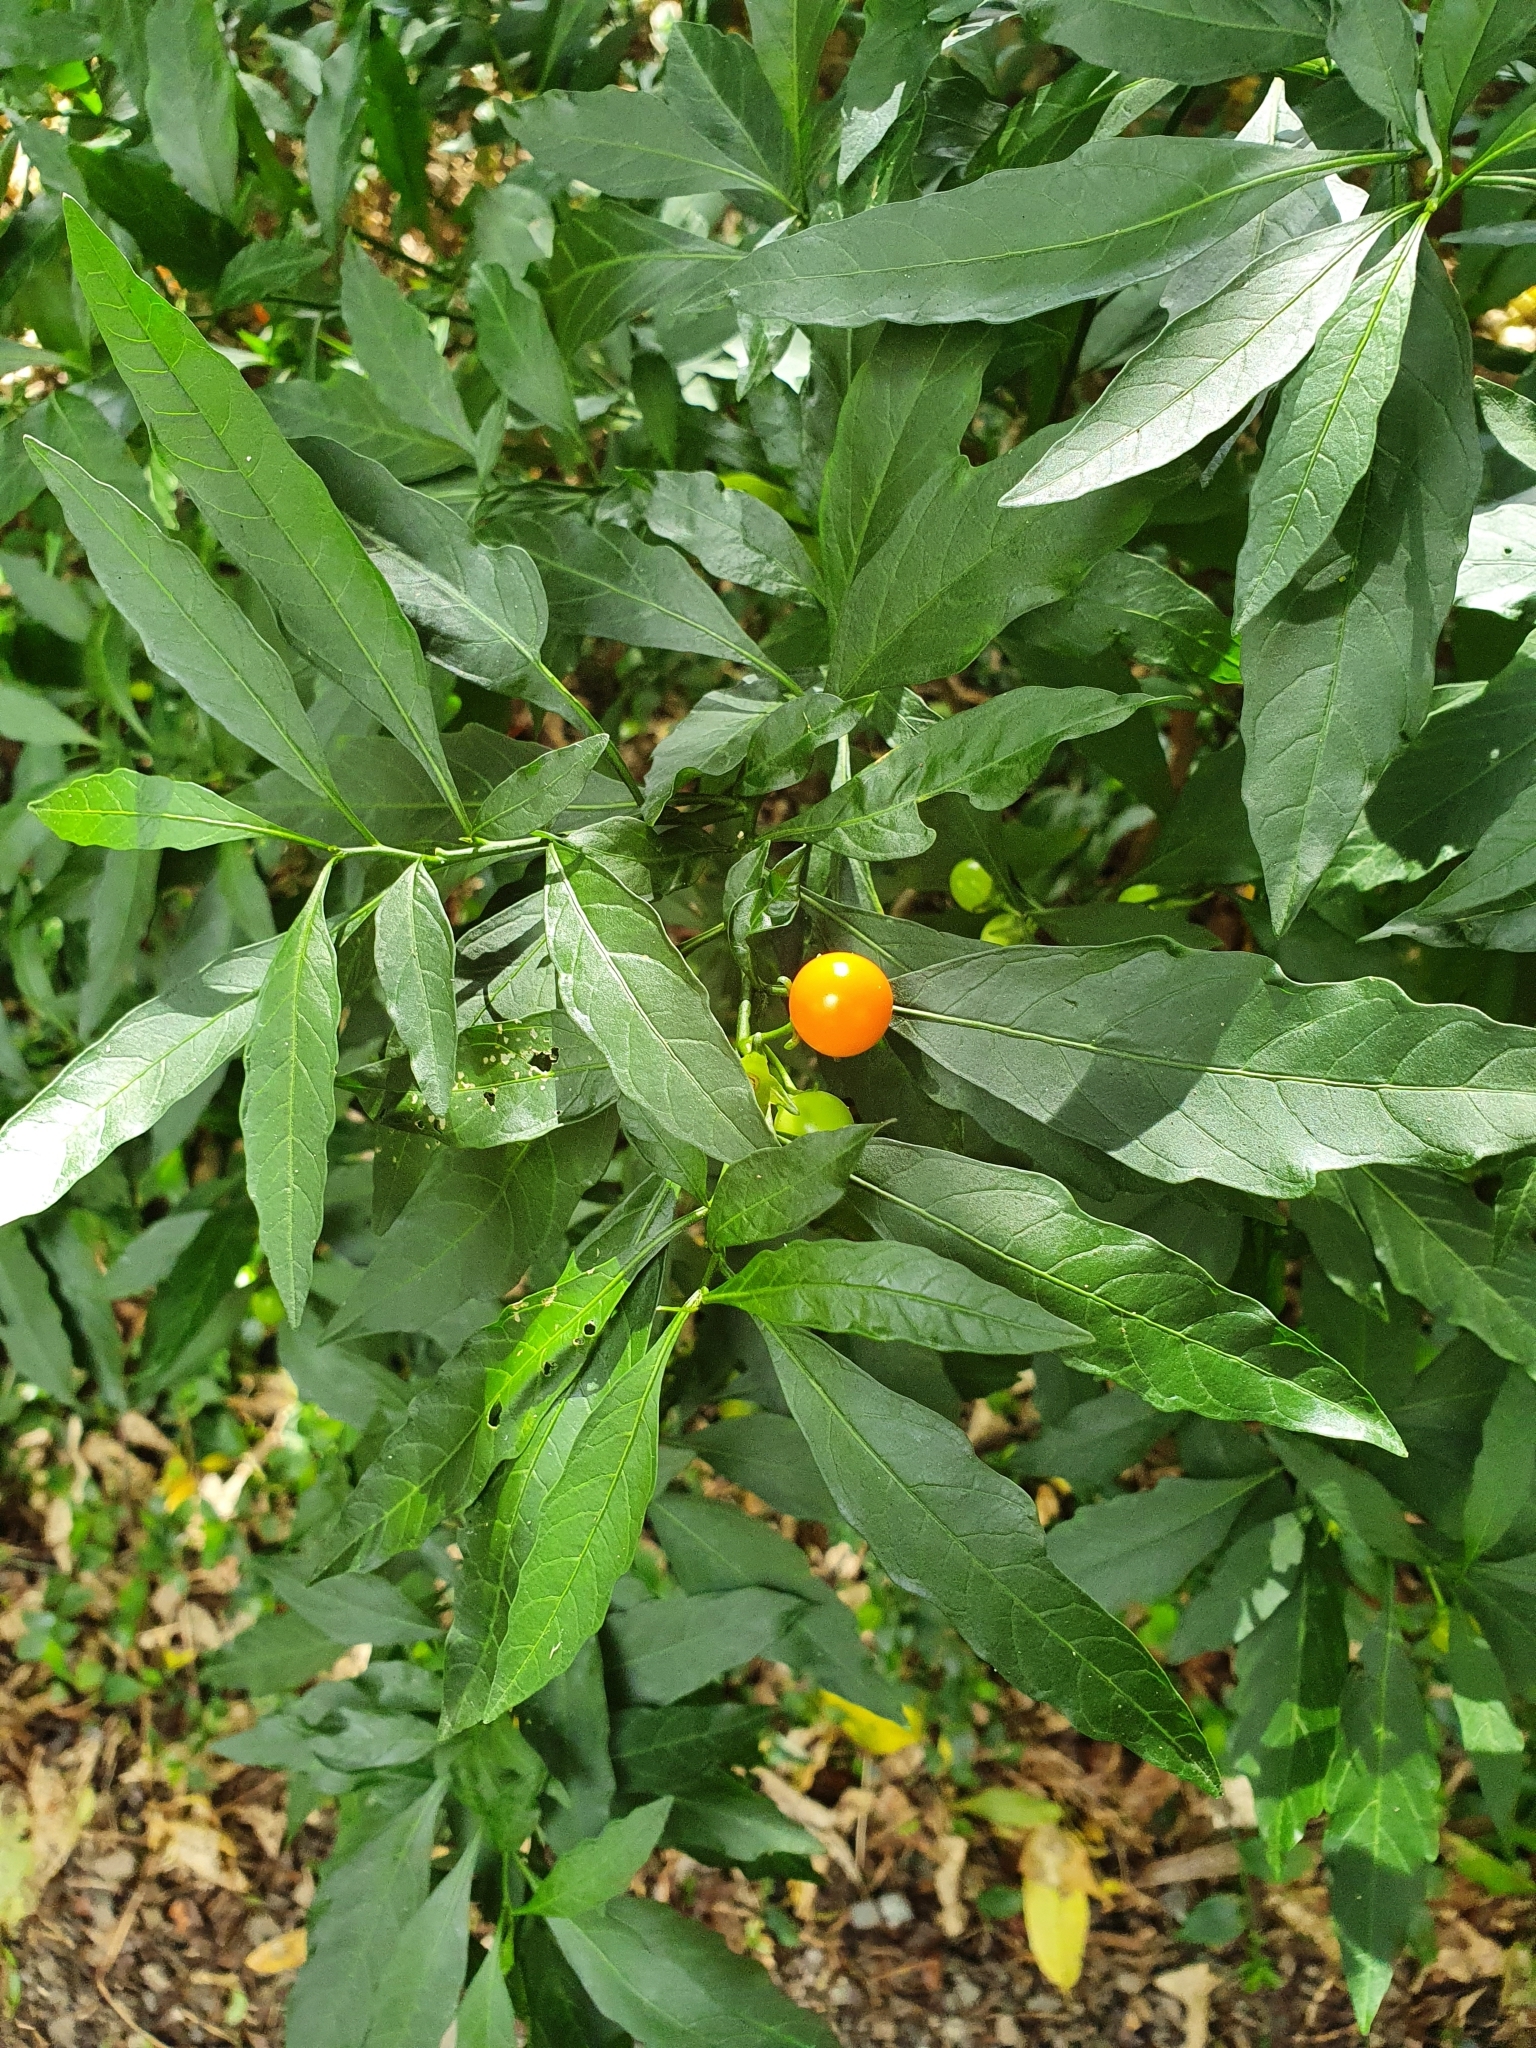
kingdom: Plantae
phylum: Tracheophyta
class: Magnoliopsida
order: Solanales
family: Solanaceae
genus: Solanum
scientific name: Solanum pseudocapsicum
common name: Jerusalem cherry
